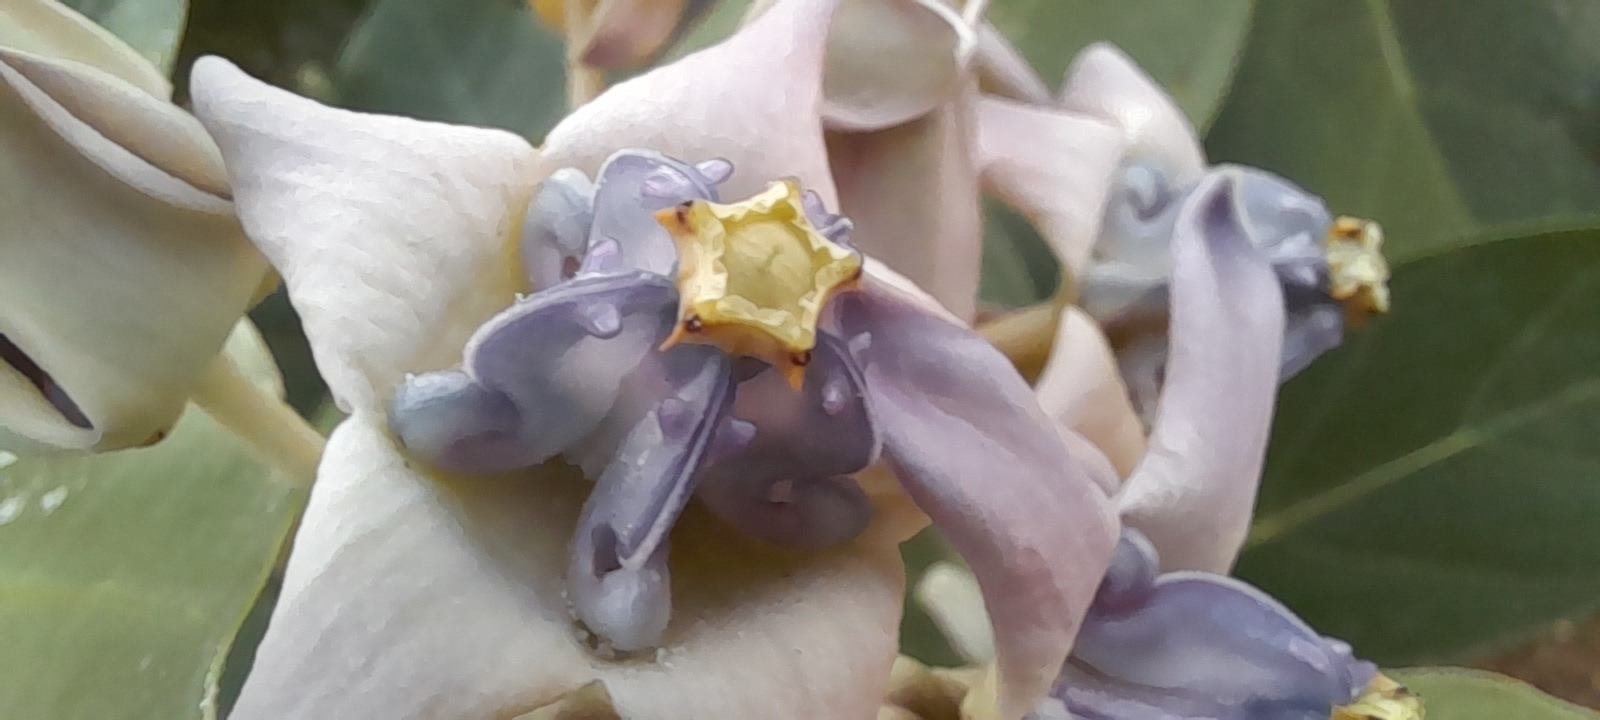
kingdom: Plantae
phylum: Tracheophyta
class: Magnoliopsida
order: Gentianales
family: Apocynaceae
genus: Calotropis
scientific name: Calotropis gigantea
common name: Crown flower
